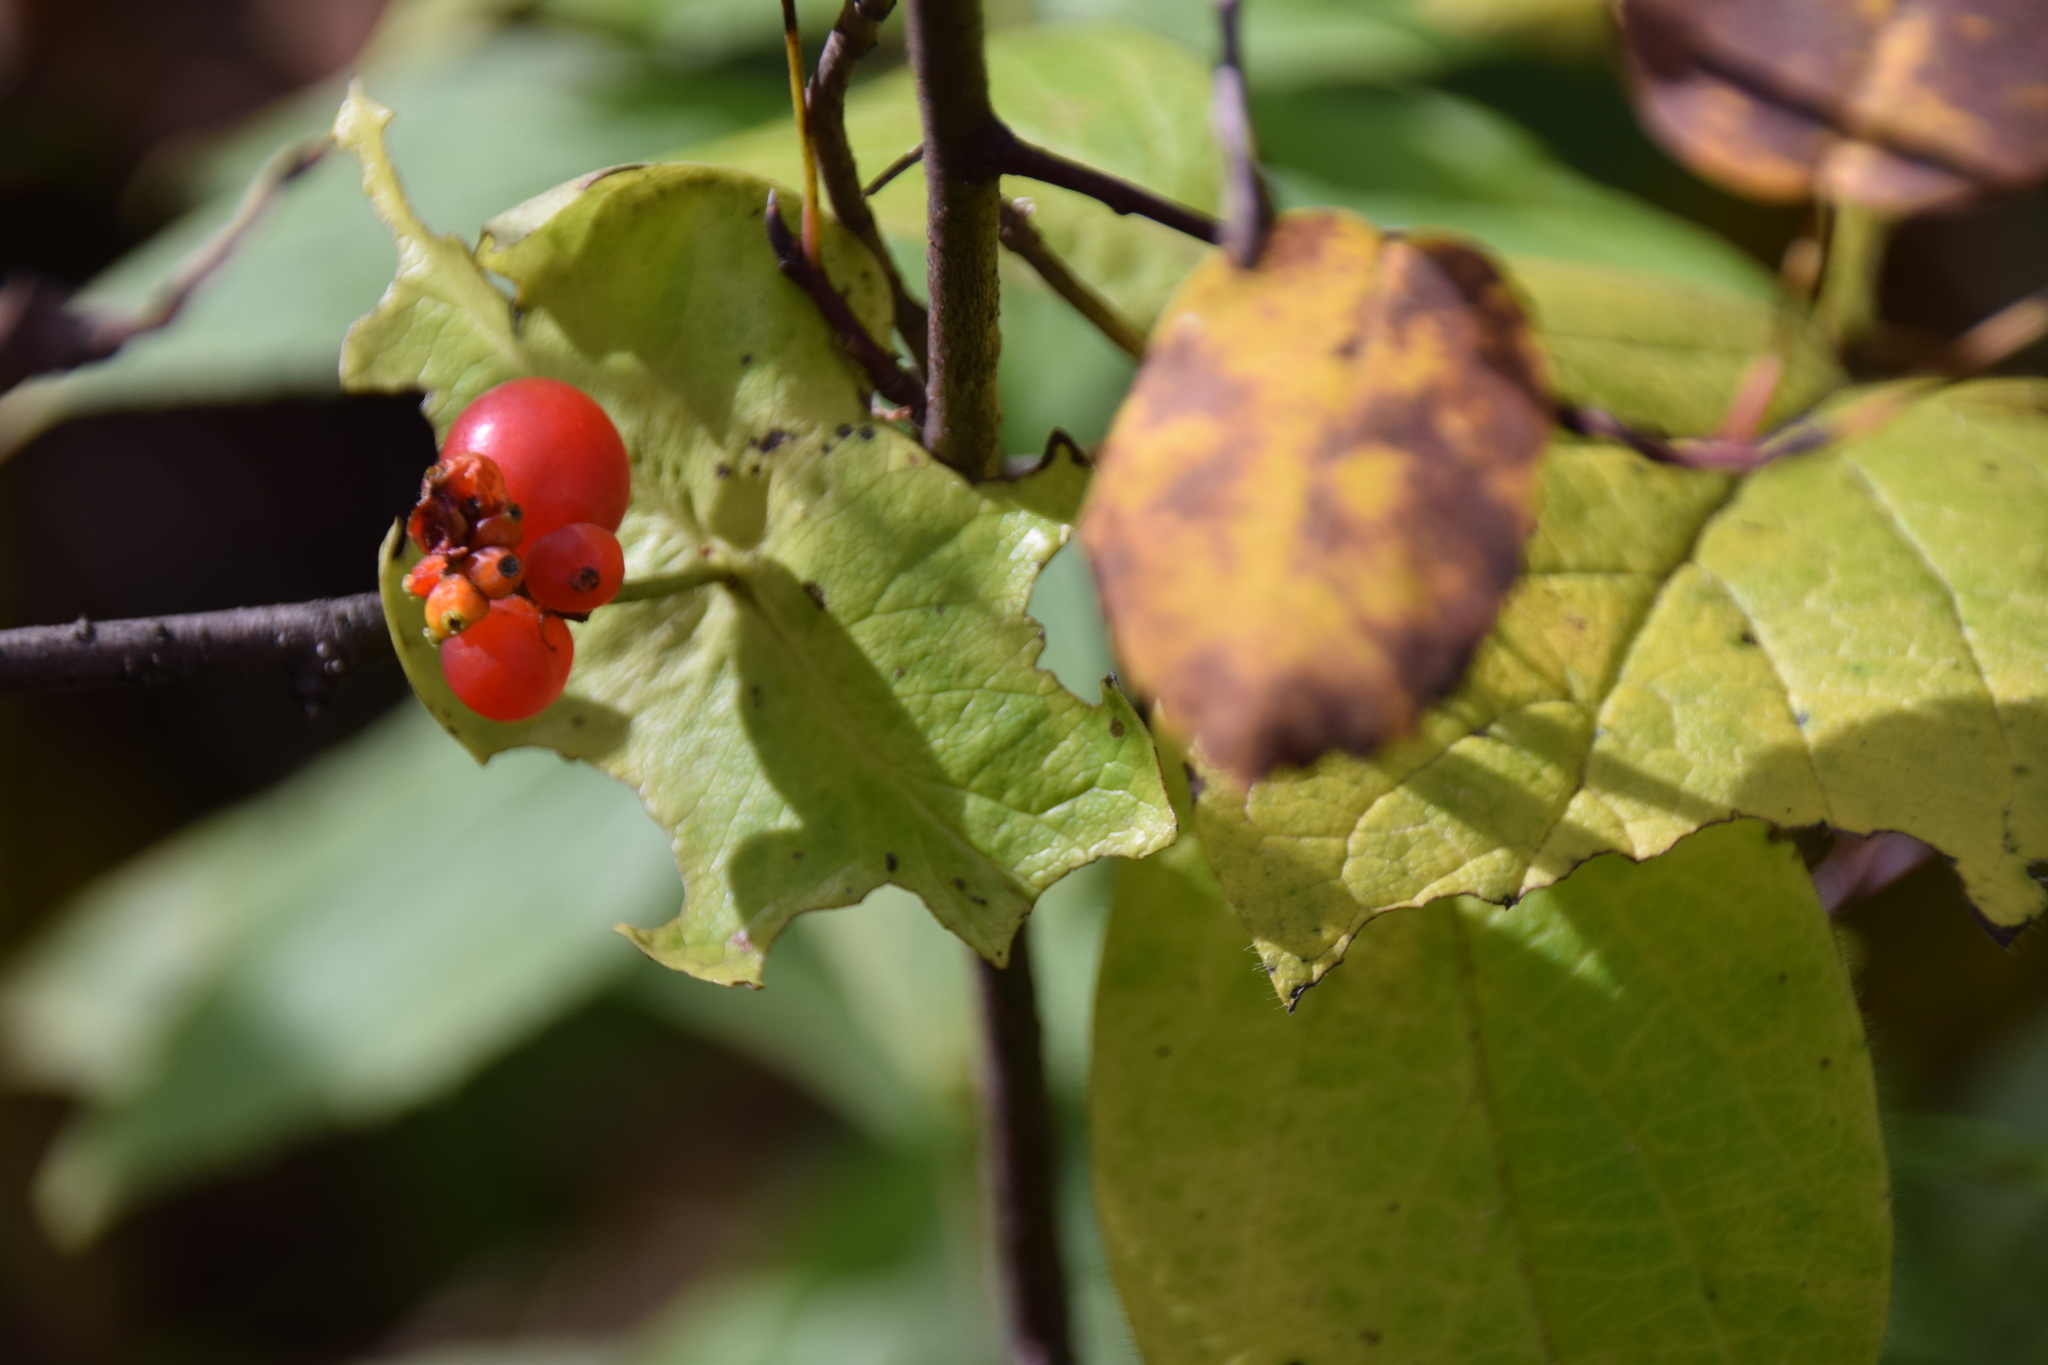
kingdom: Plantae
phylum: Tracheophyta
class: Magnoliopsida
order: Dipsacales
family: Caprifoliaceae
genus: Lonicera
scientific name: Lonicera hirsuta
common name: Hairy honeysuckle
